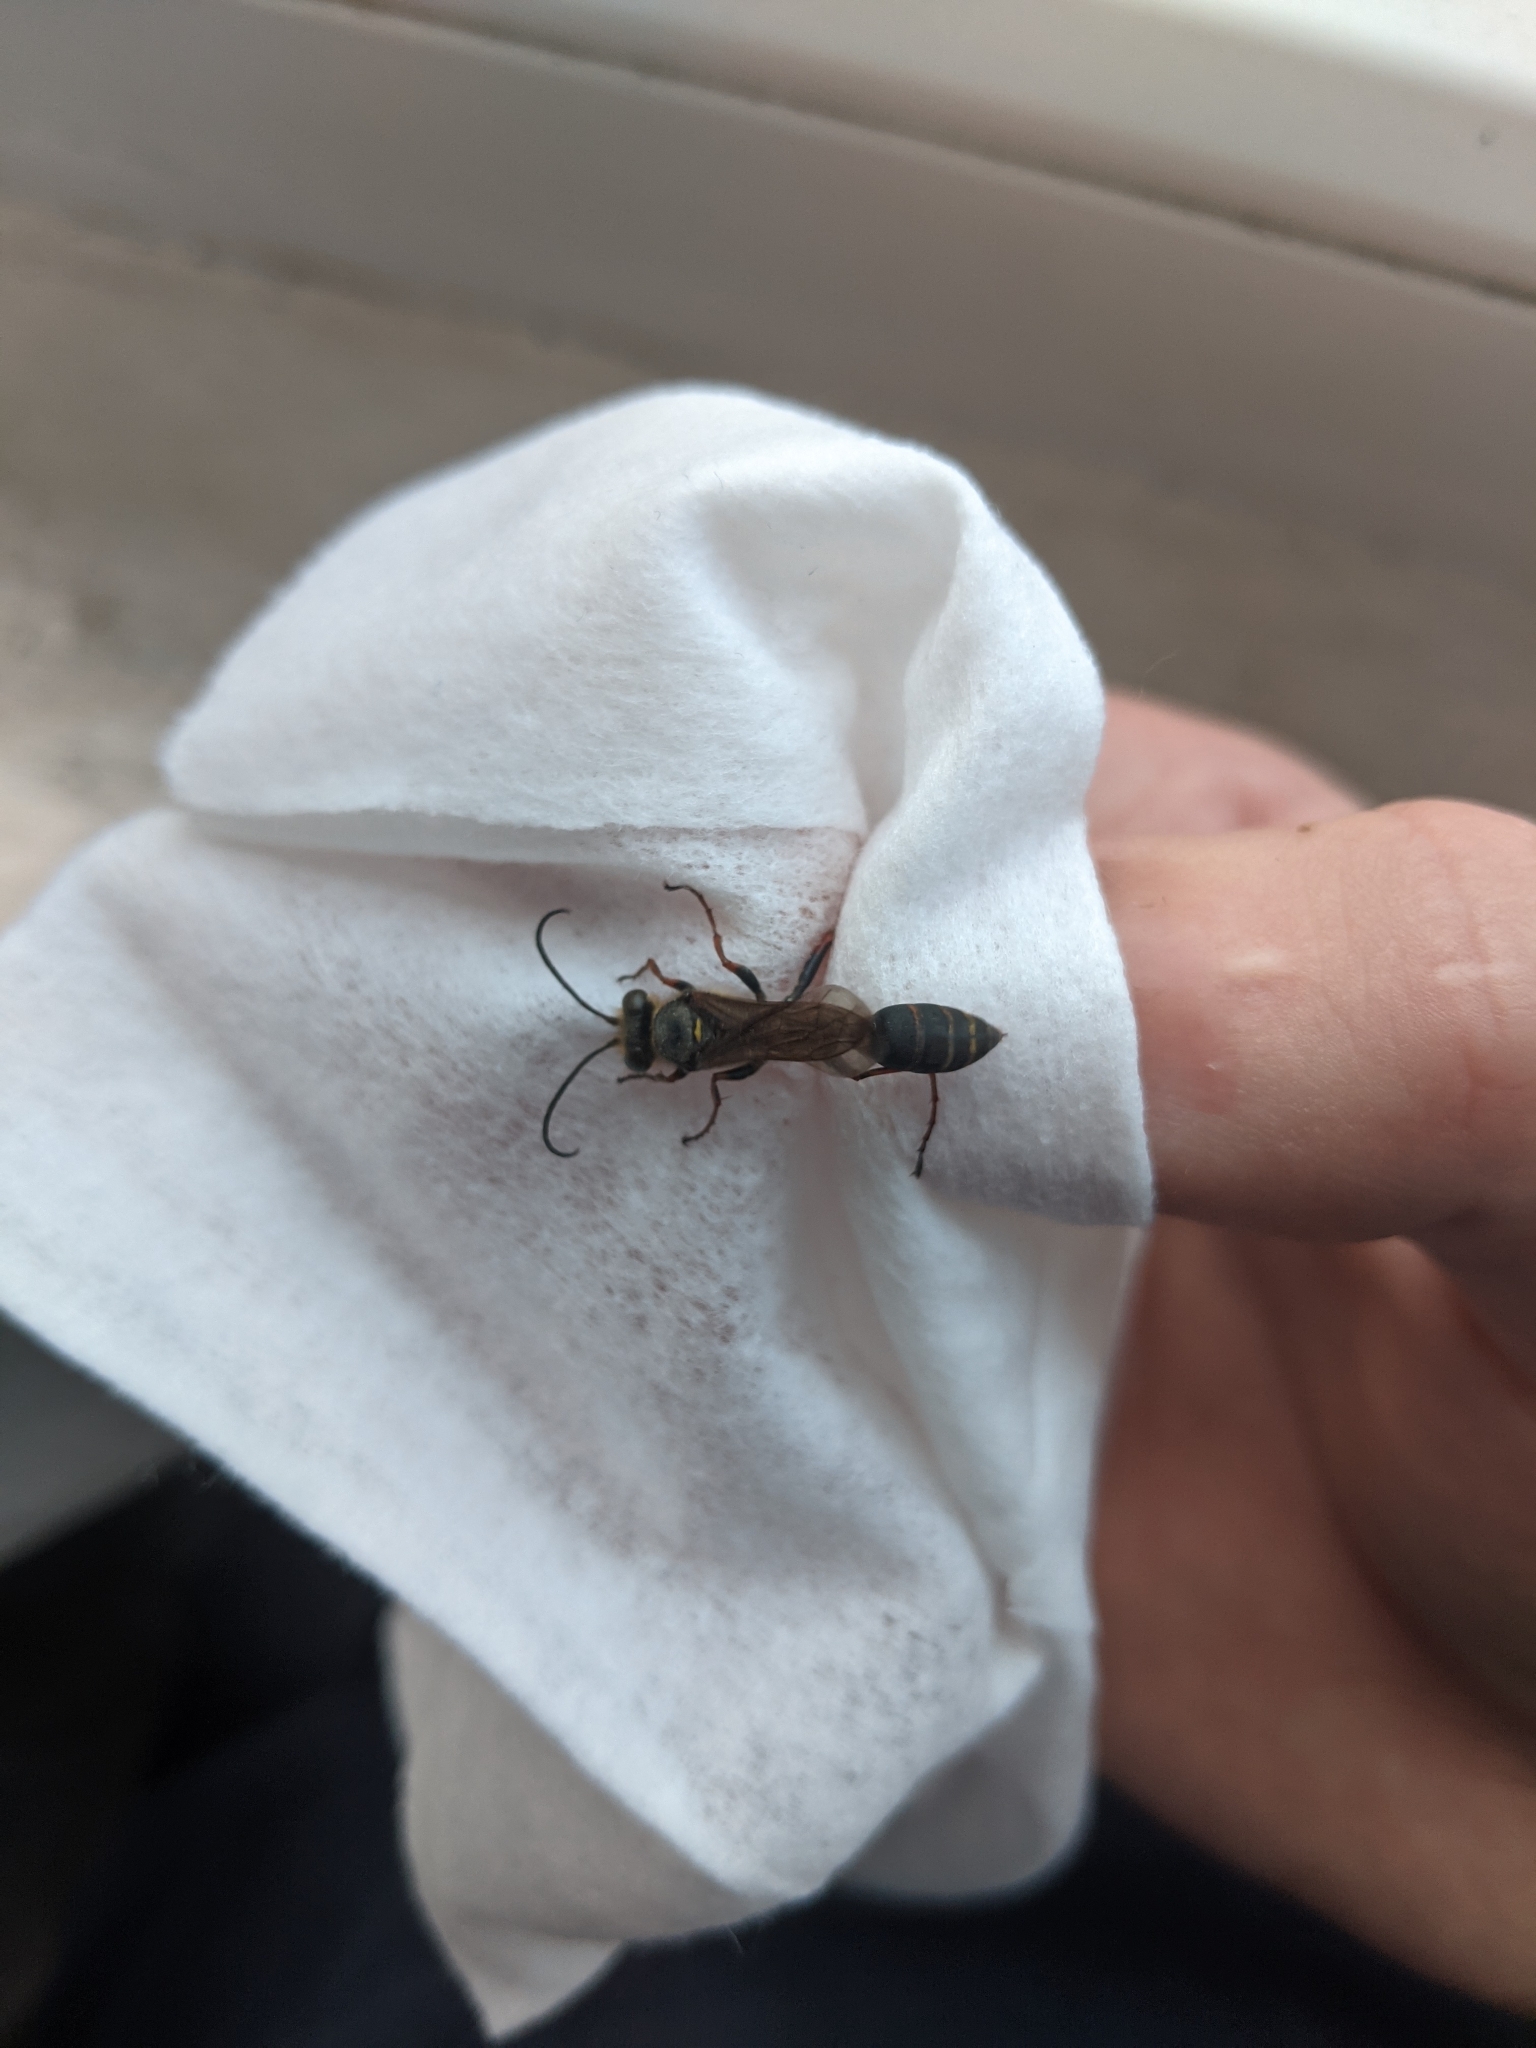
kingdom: Animalia
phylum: Arthropoda
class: Insecta
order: Hymenoptera
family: Sphecidae
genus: Sceliphron
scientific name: Sceliphron curvatum
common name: Pèlopèe
